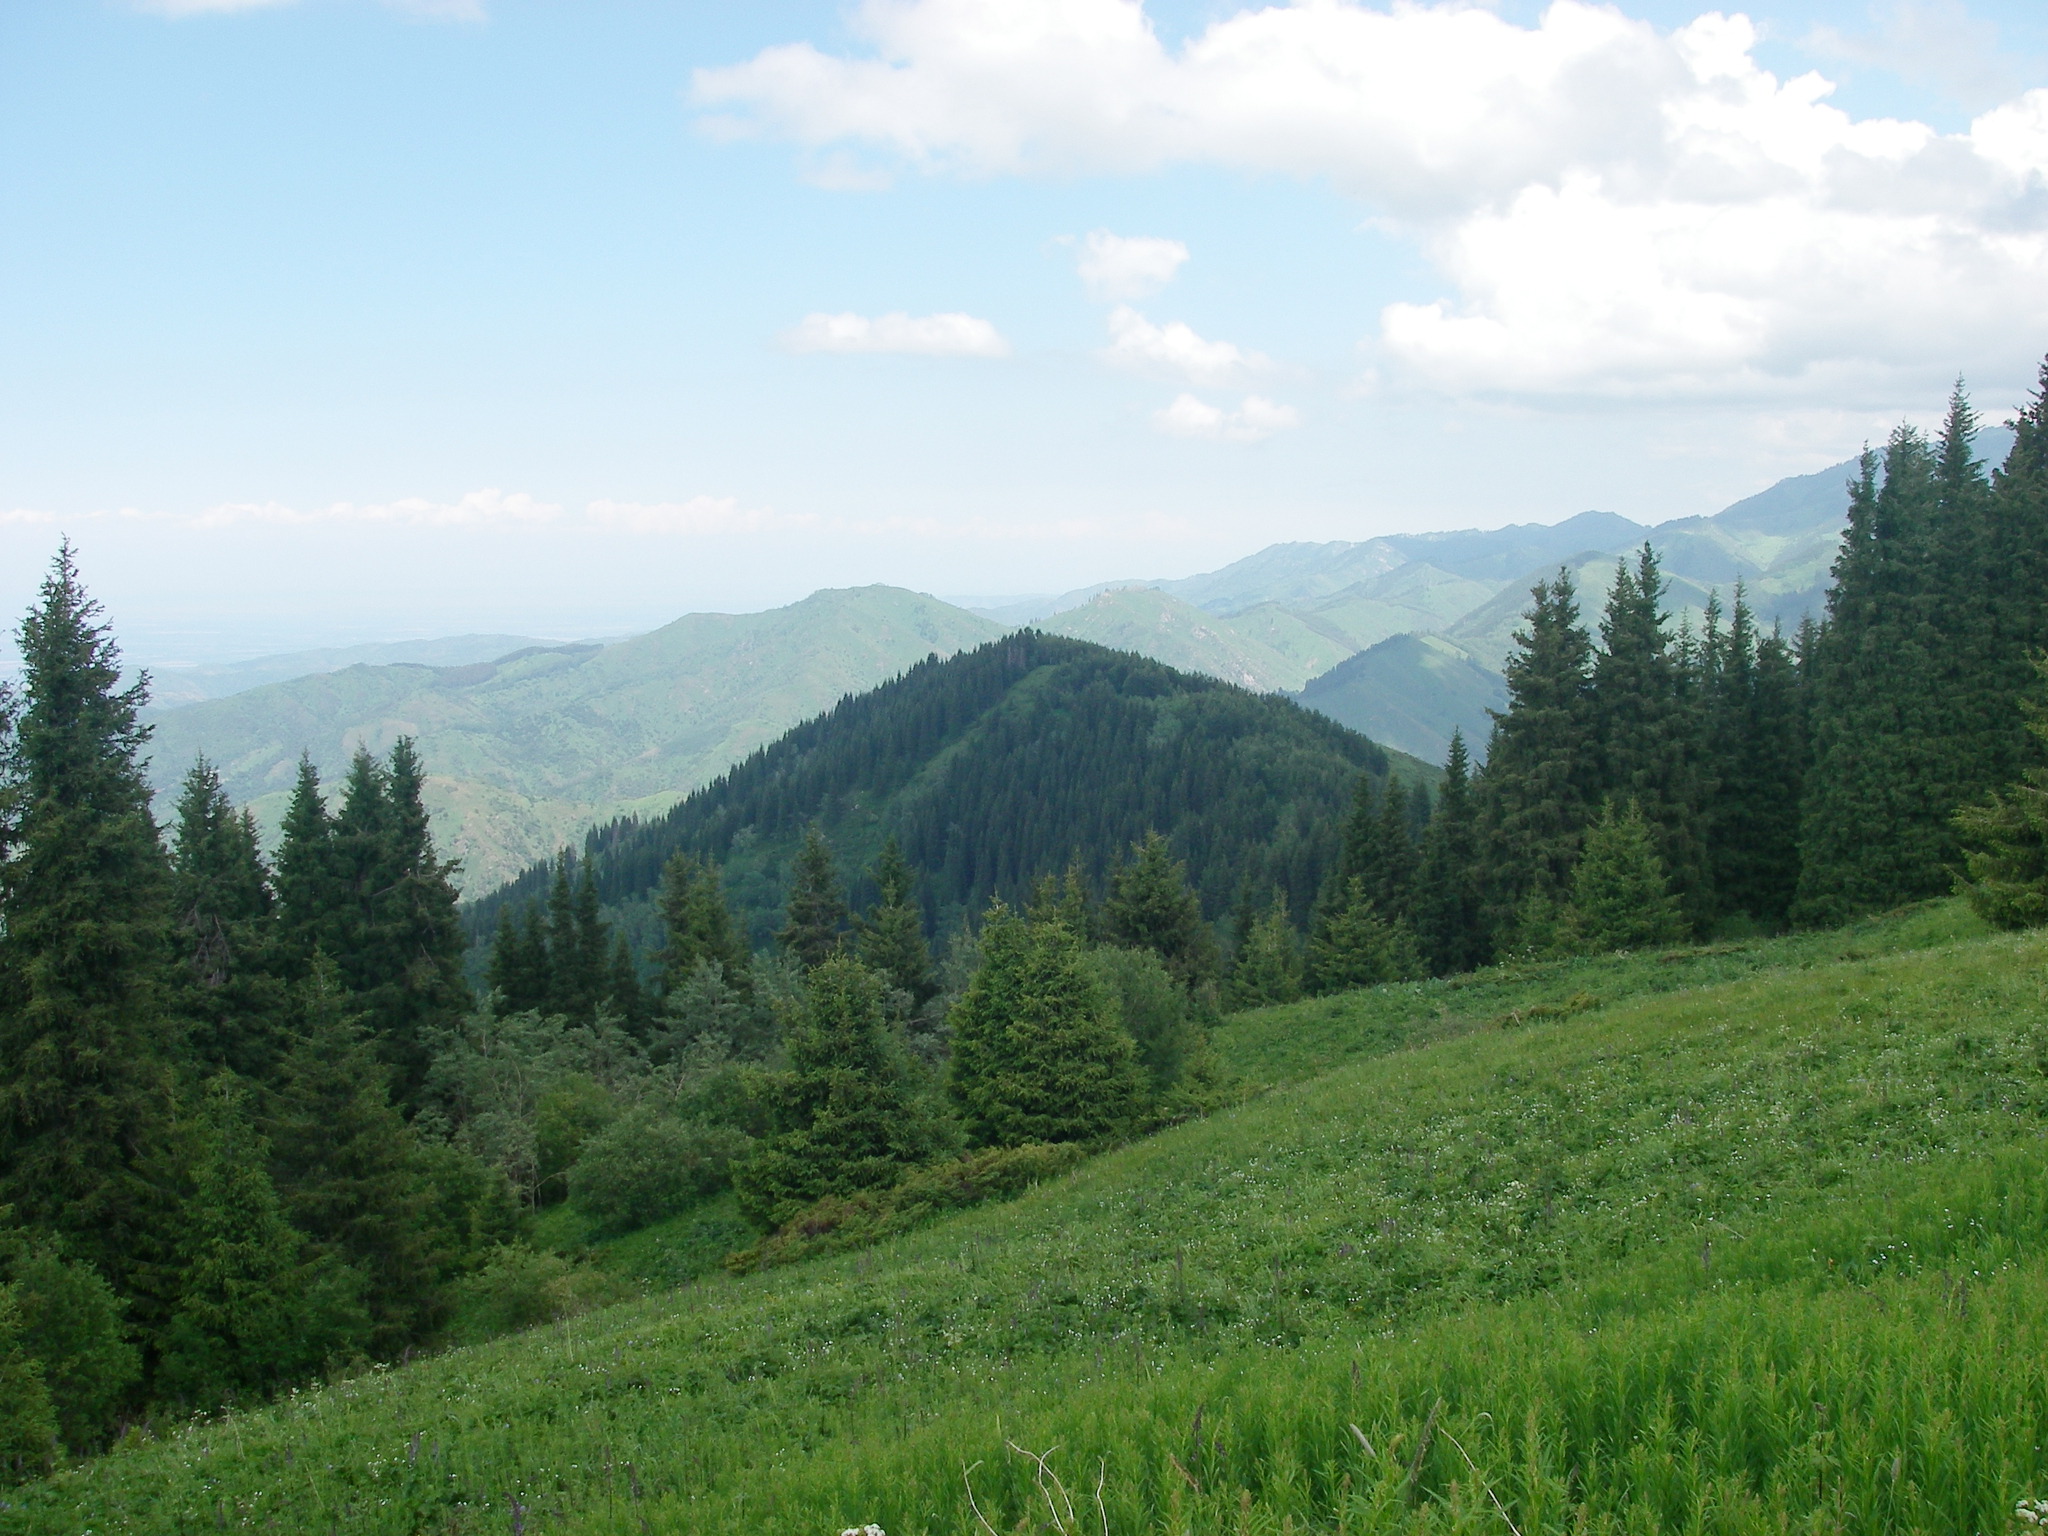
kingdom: Plantae
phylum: Tracheophyta
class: Pinopsida
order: Pinales
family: Pinaceae
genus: Picea
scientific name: Picea schrenkiana
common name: Asian spruce
